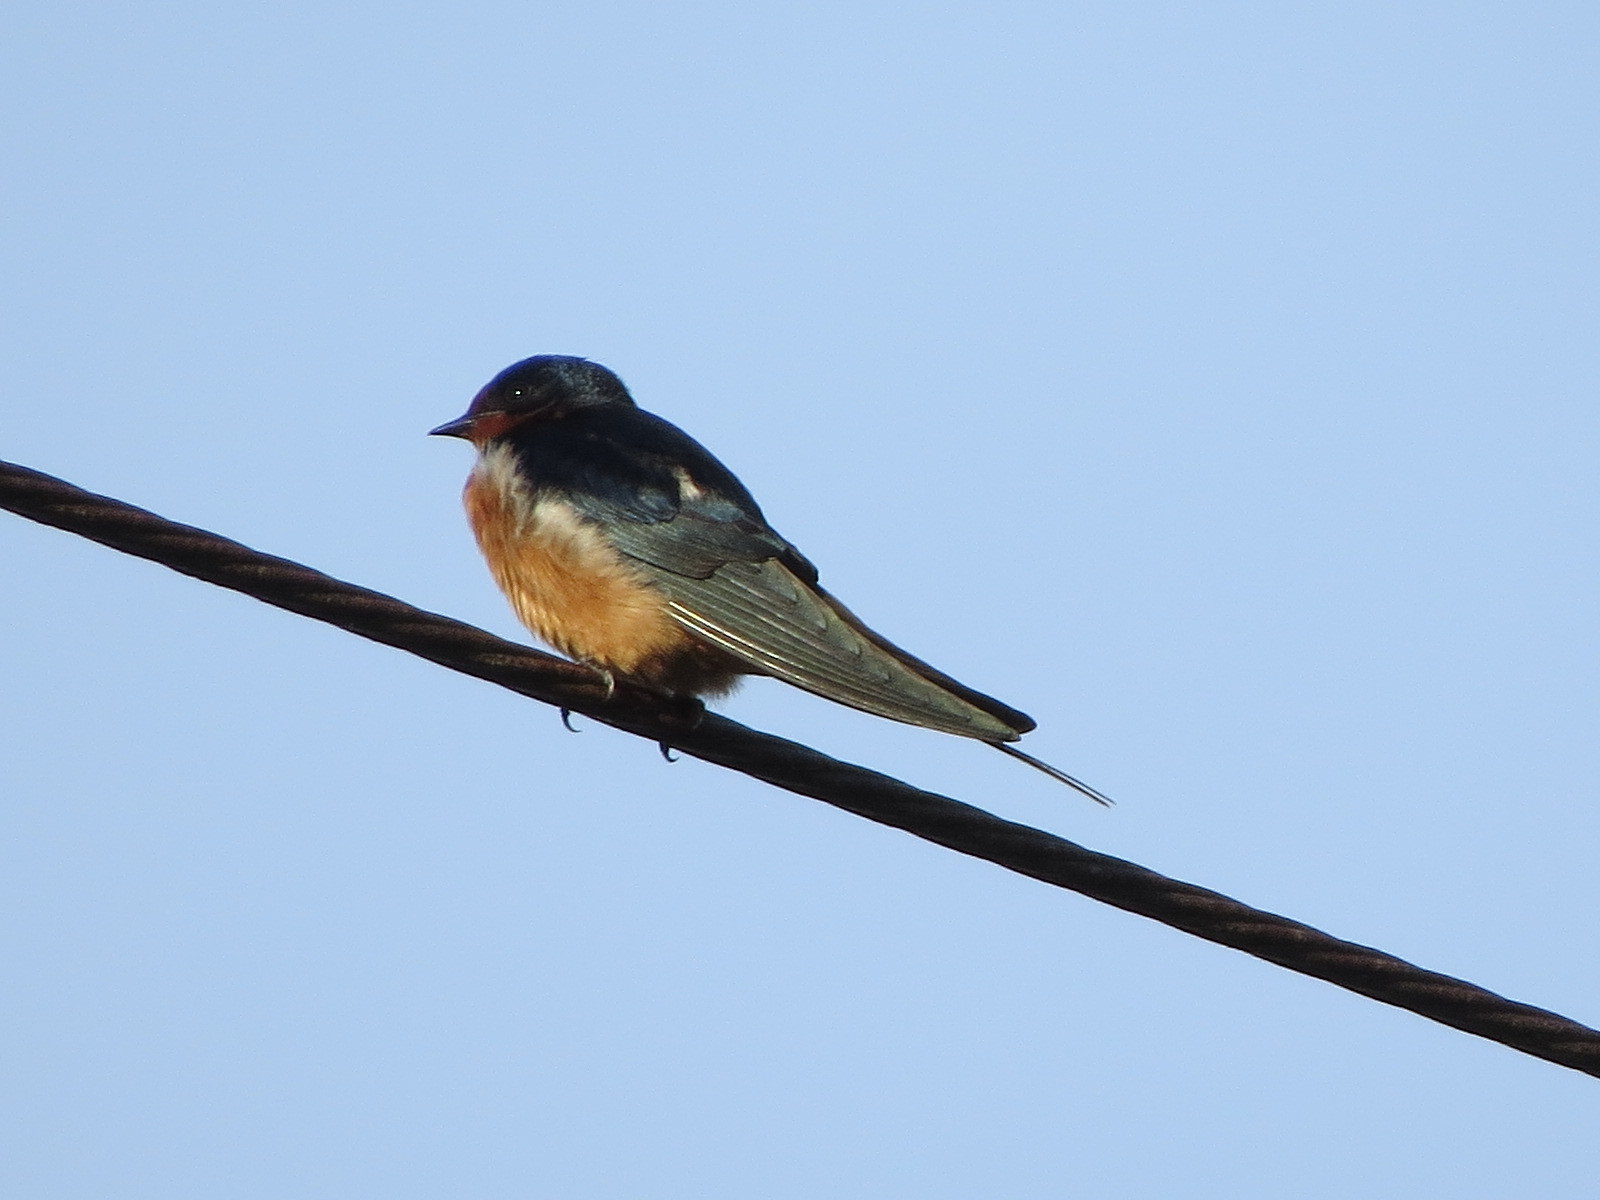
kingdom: Animalia
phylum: Chordata
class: Aves
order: Passeriformes
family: Hirundinidae
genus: Hirundo
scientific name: Hirundo rustica
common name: Barn swallow
